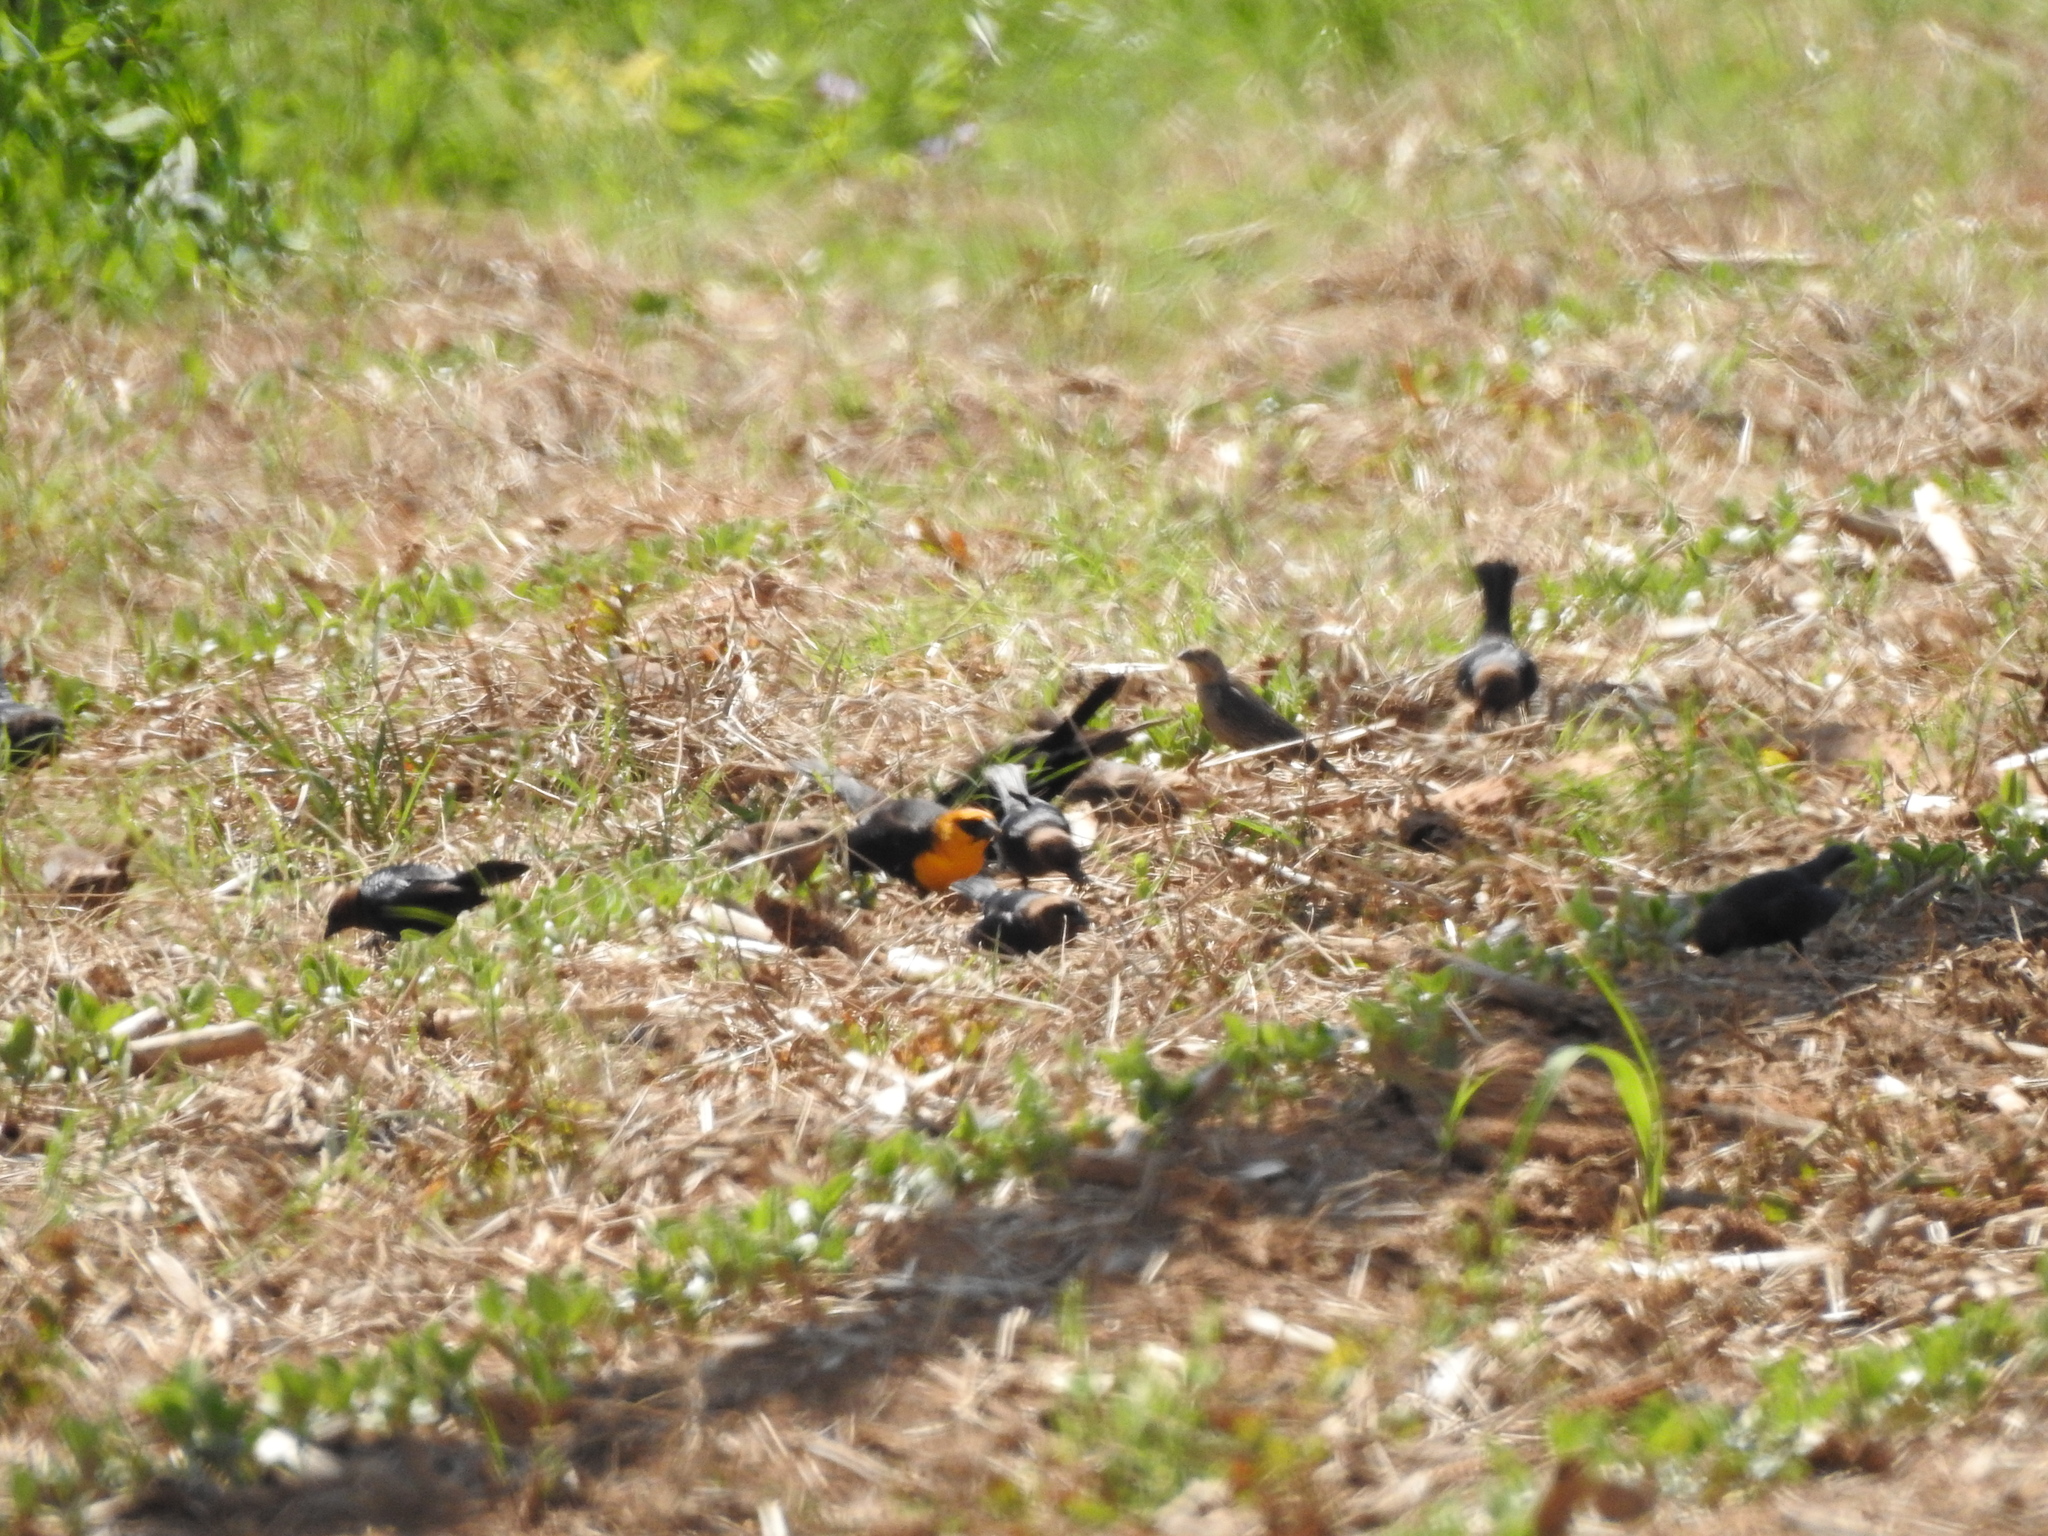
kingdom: Animalia
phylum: Chordata
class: Aves
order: Passeriformes
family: Icteridae
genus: Xanthocephalus
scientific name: Xanthocephalus xanthocephalus
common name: Yellow-headed blackbird
